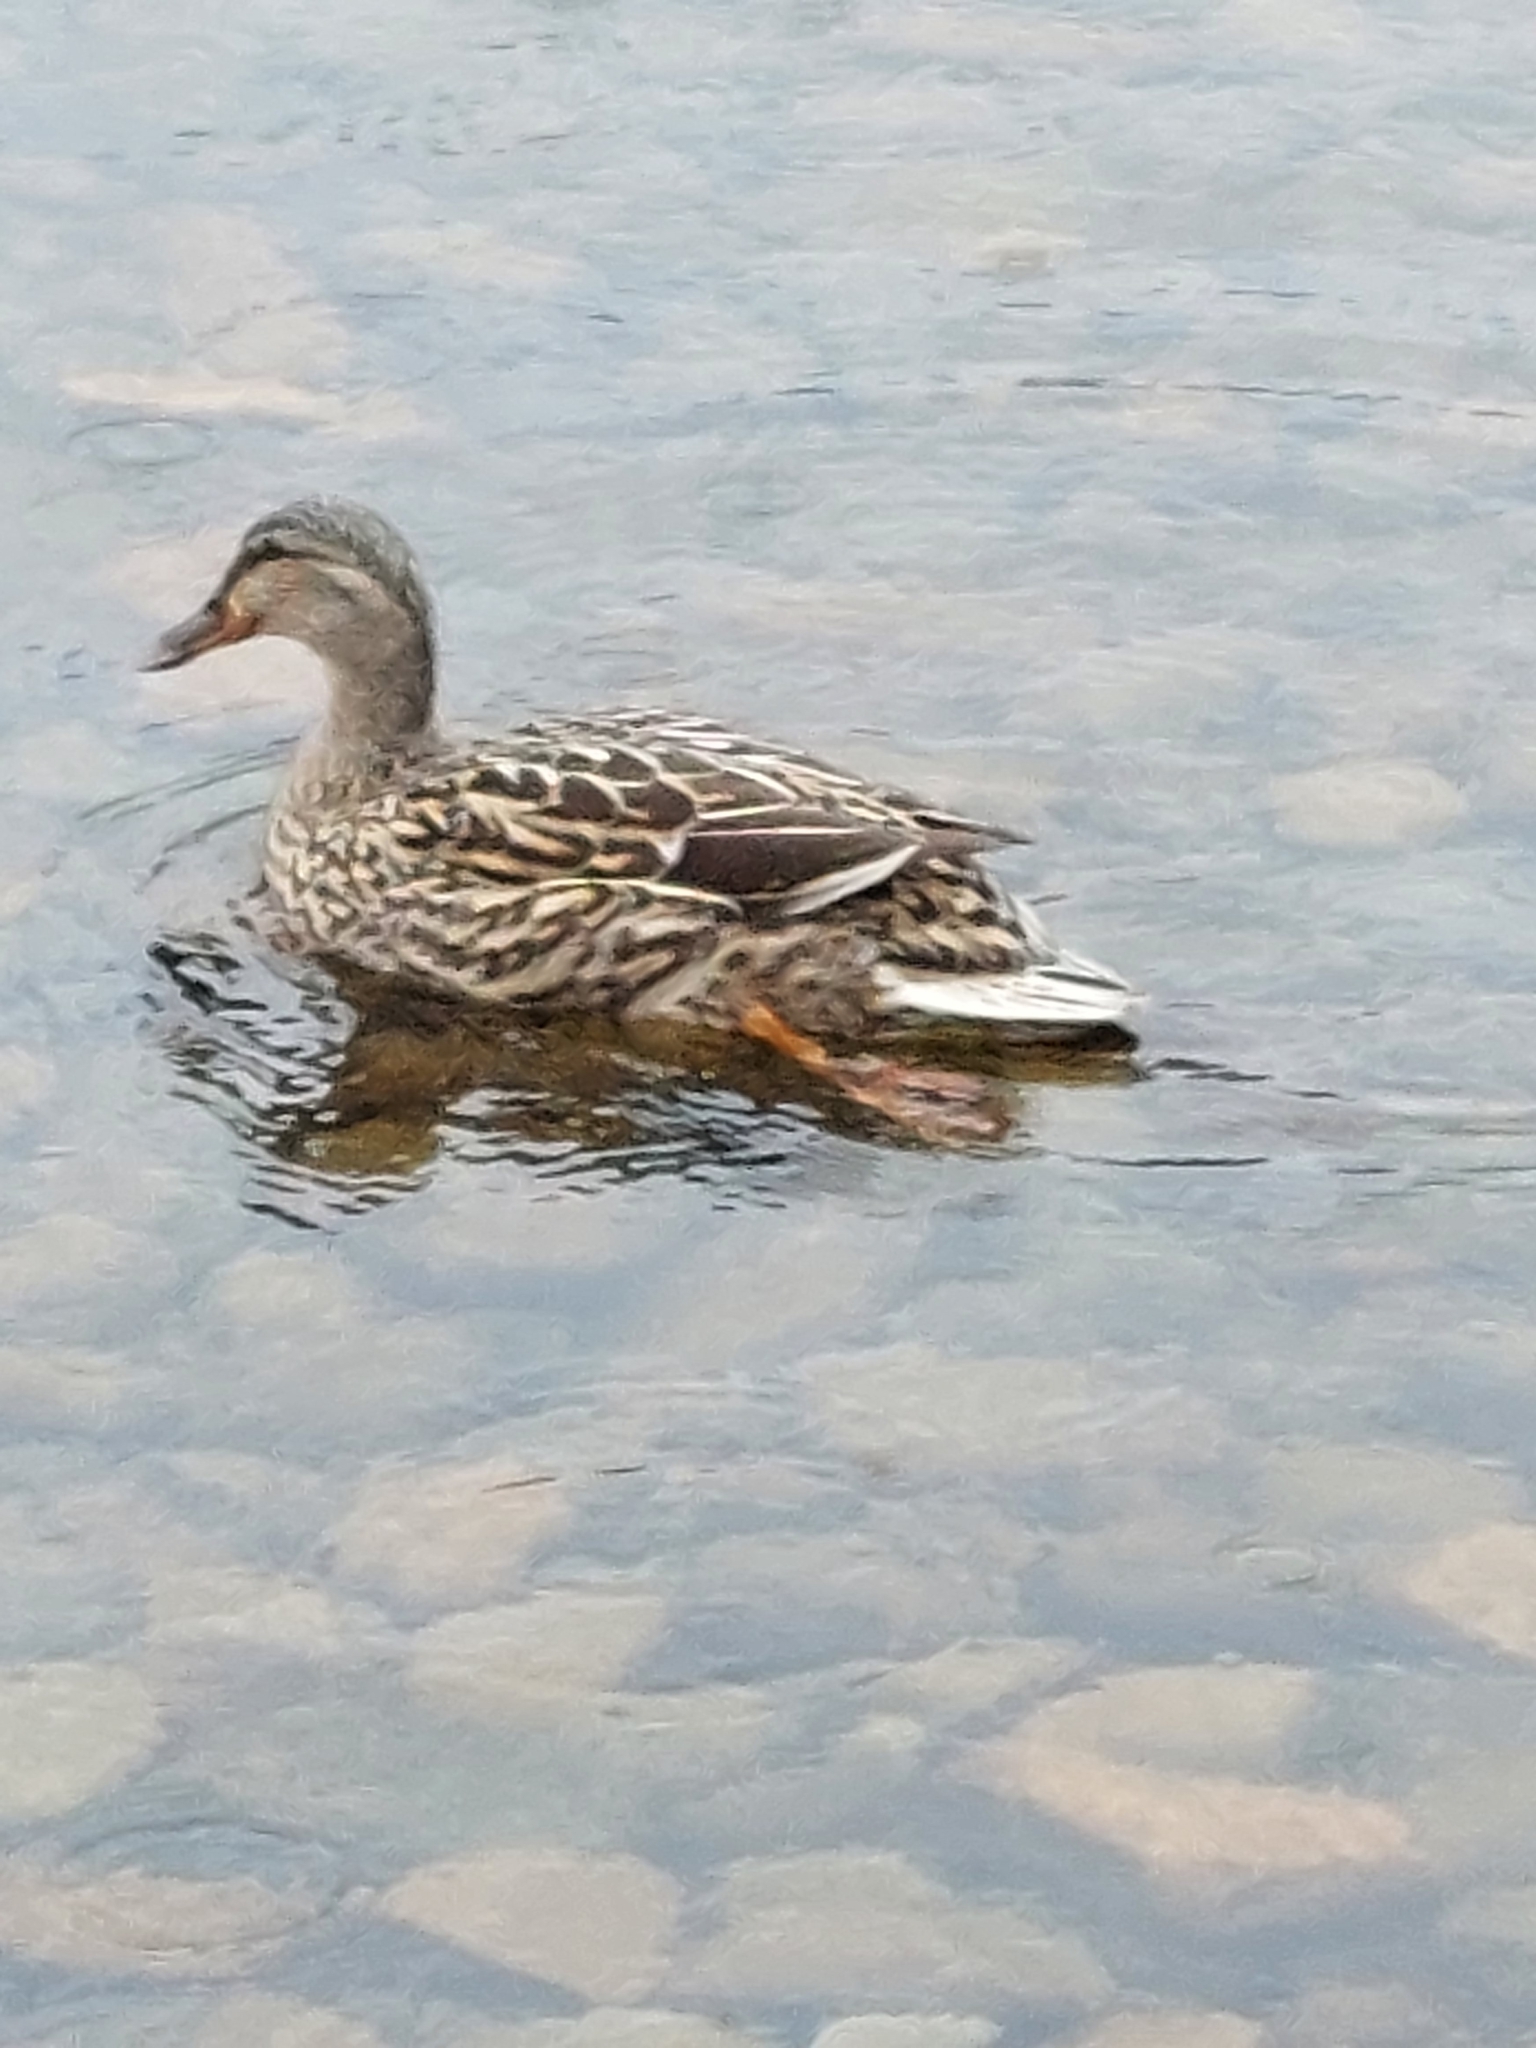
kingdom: Animalia
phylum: Chordata
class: Aves
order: Anseriformes
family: Anatidae
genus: Anas
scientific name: Anas platyrhynchos
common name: Mallard
